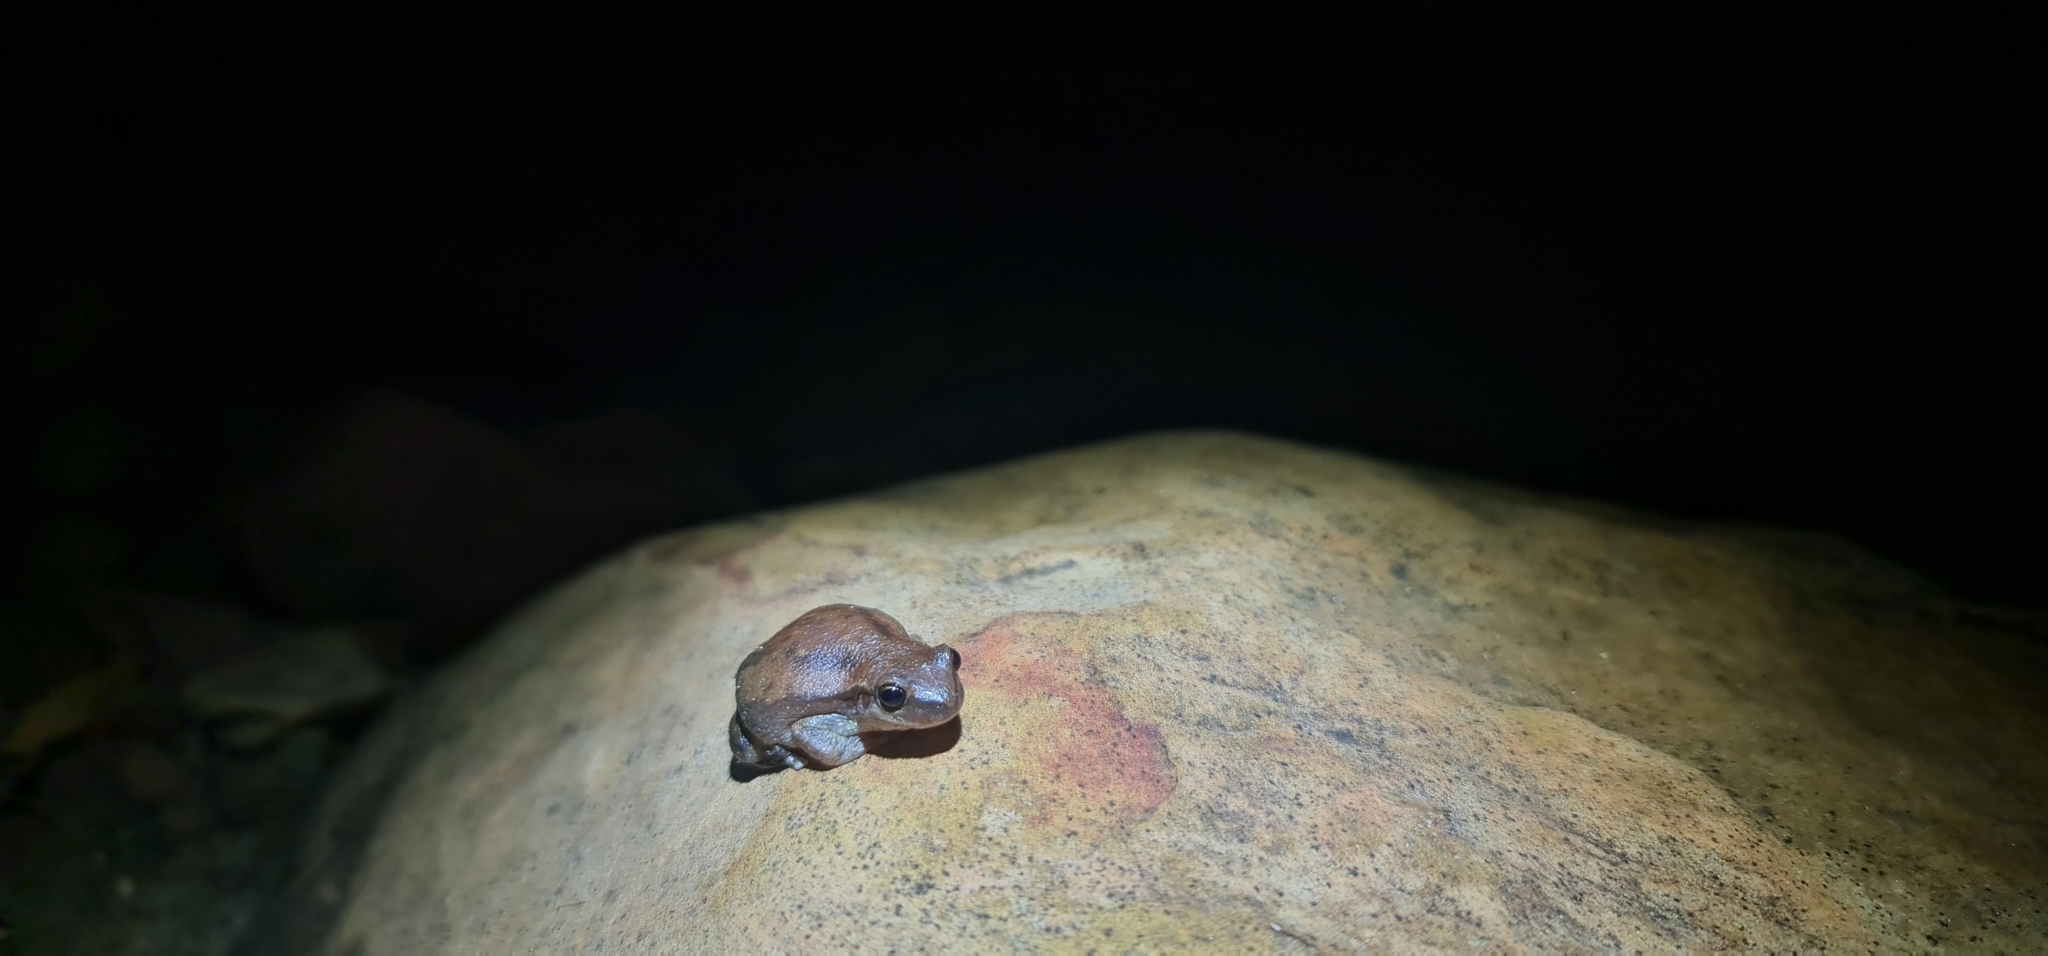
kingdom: Animalia
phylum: Chordata
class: Amphibia
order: Anura
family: Pelodryadidae
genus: Litoria
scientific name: Litoria rubella
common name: Desert tree frog
